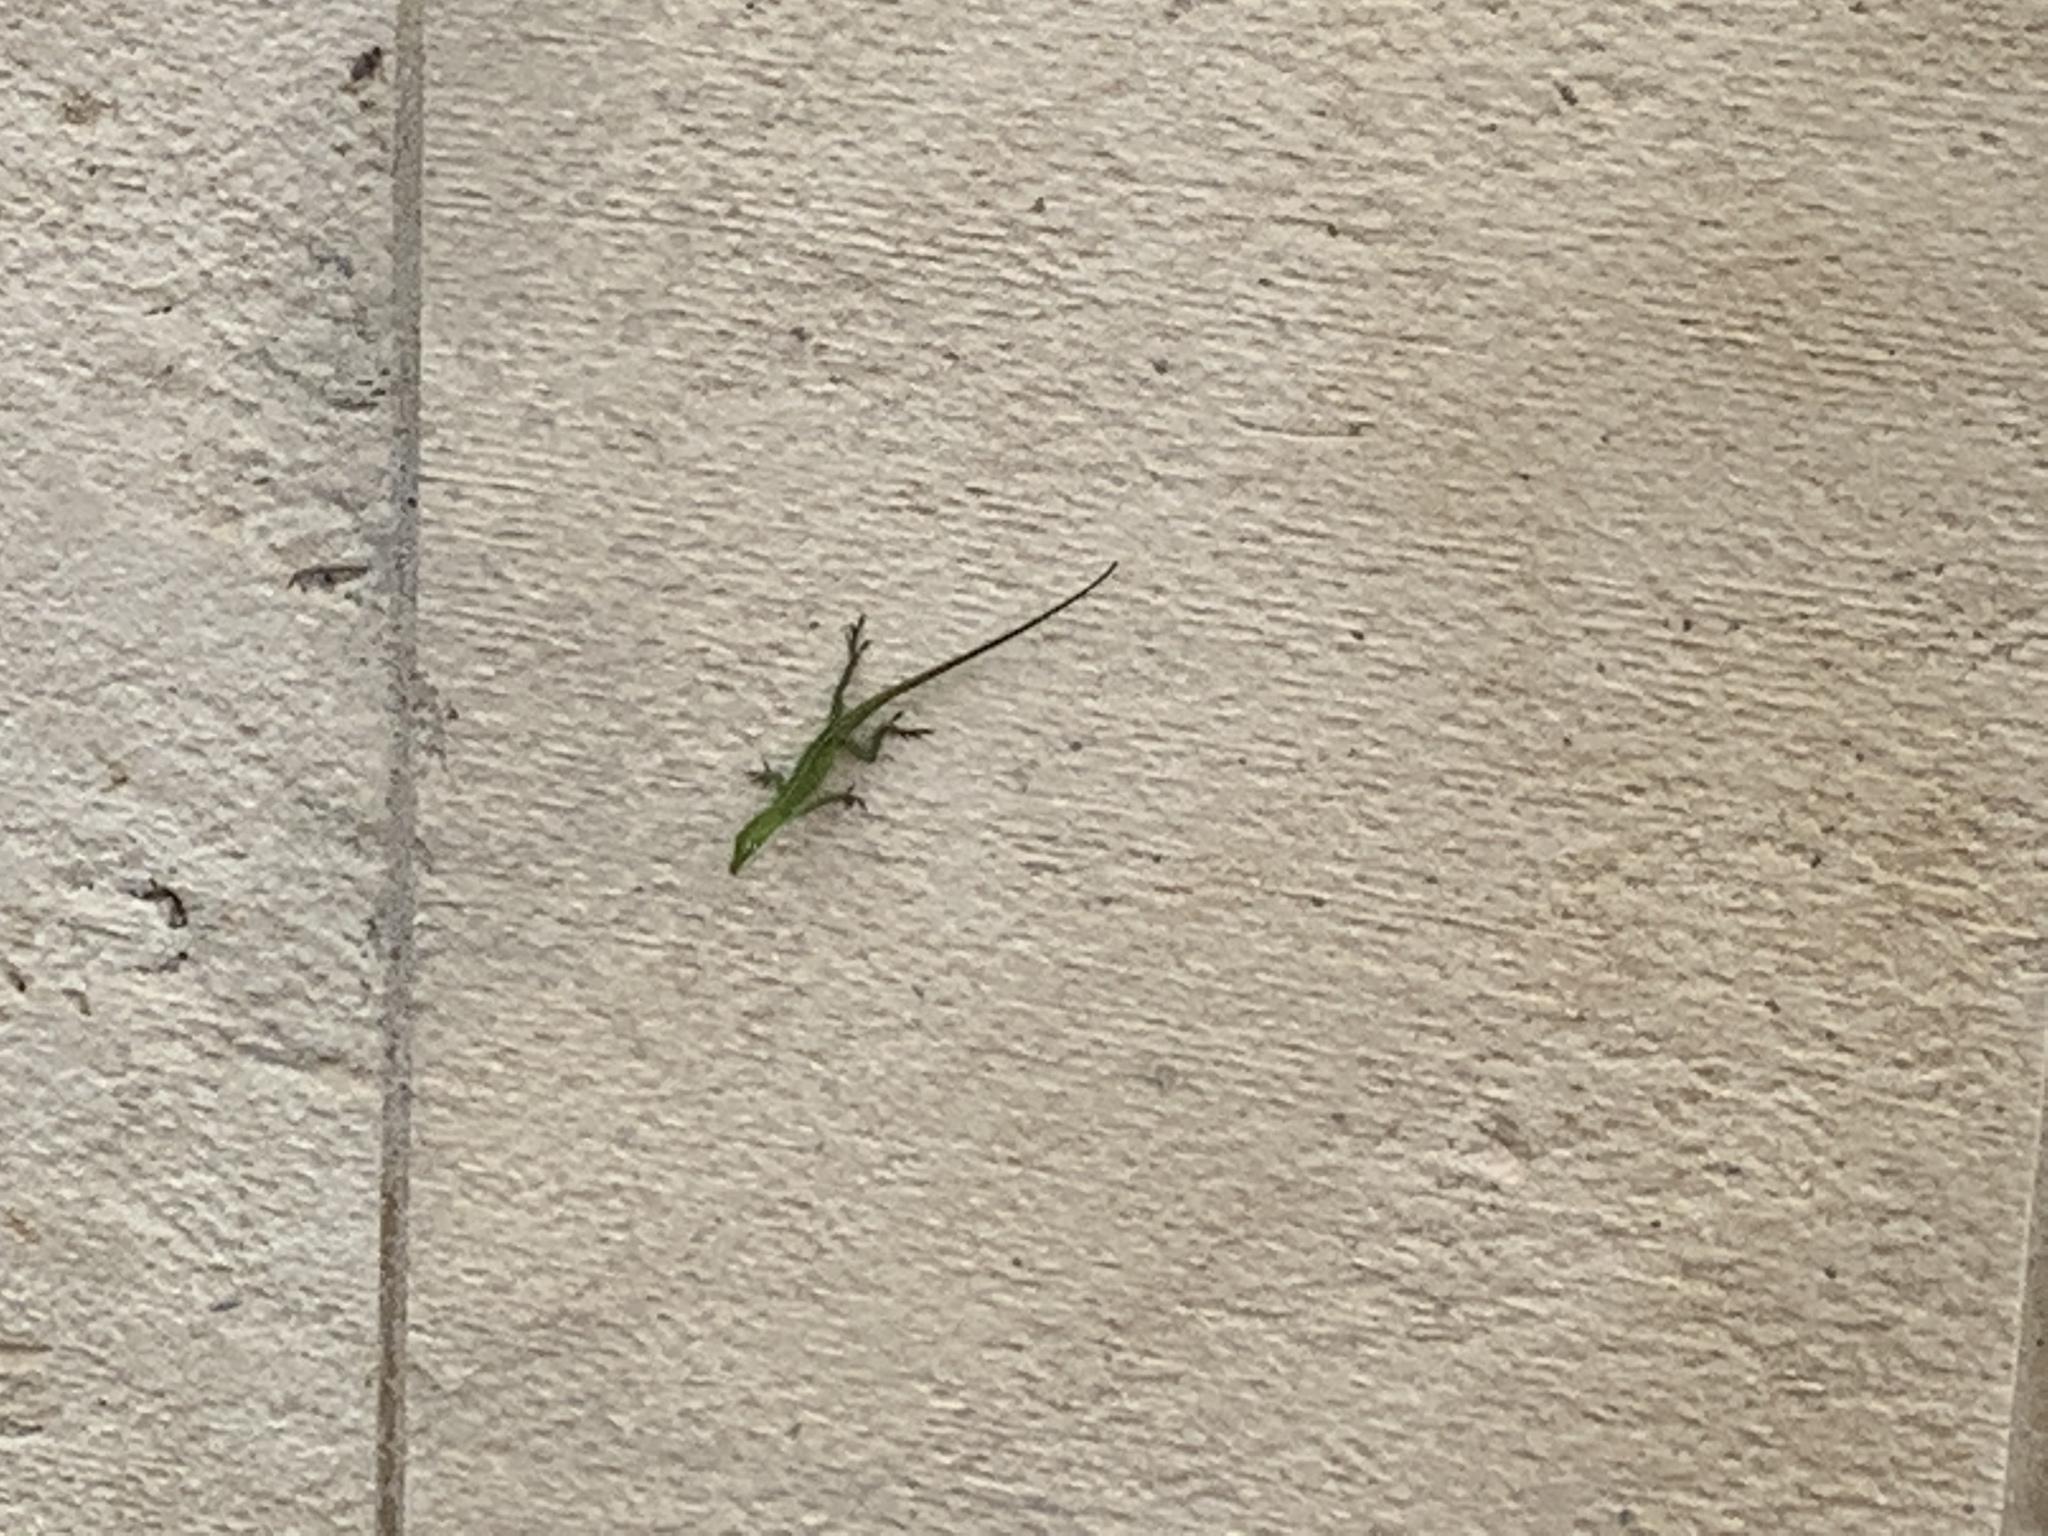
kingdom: Animalia
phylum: Chordata
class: Squamata
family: Dactyloidae
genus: Anolis
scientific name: Anolis carolinensis
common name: Green anole
